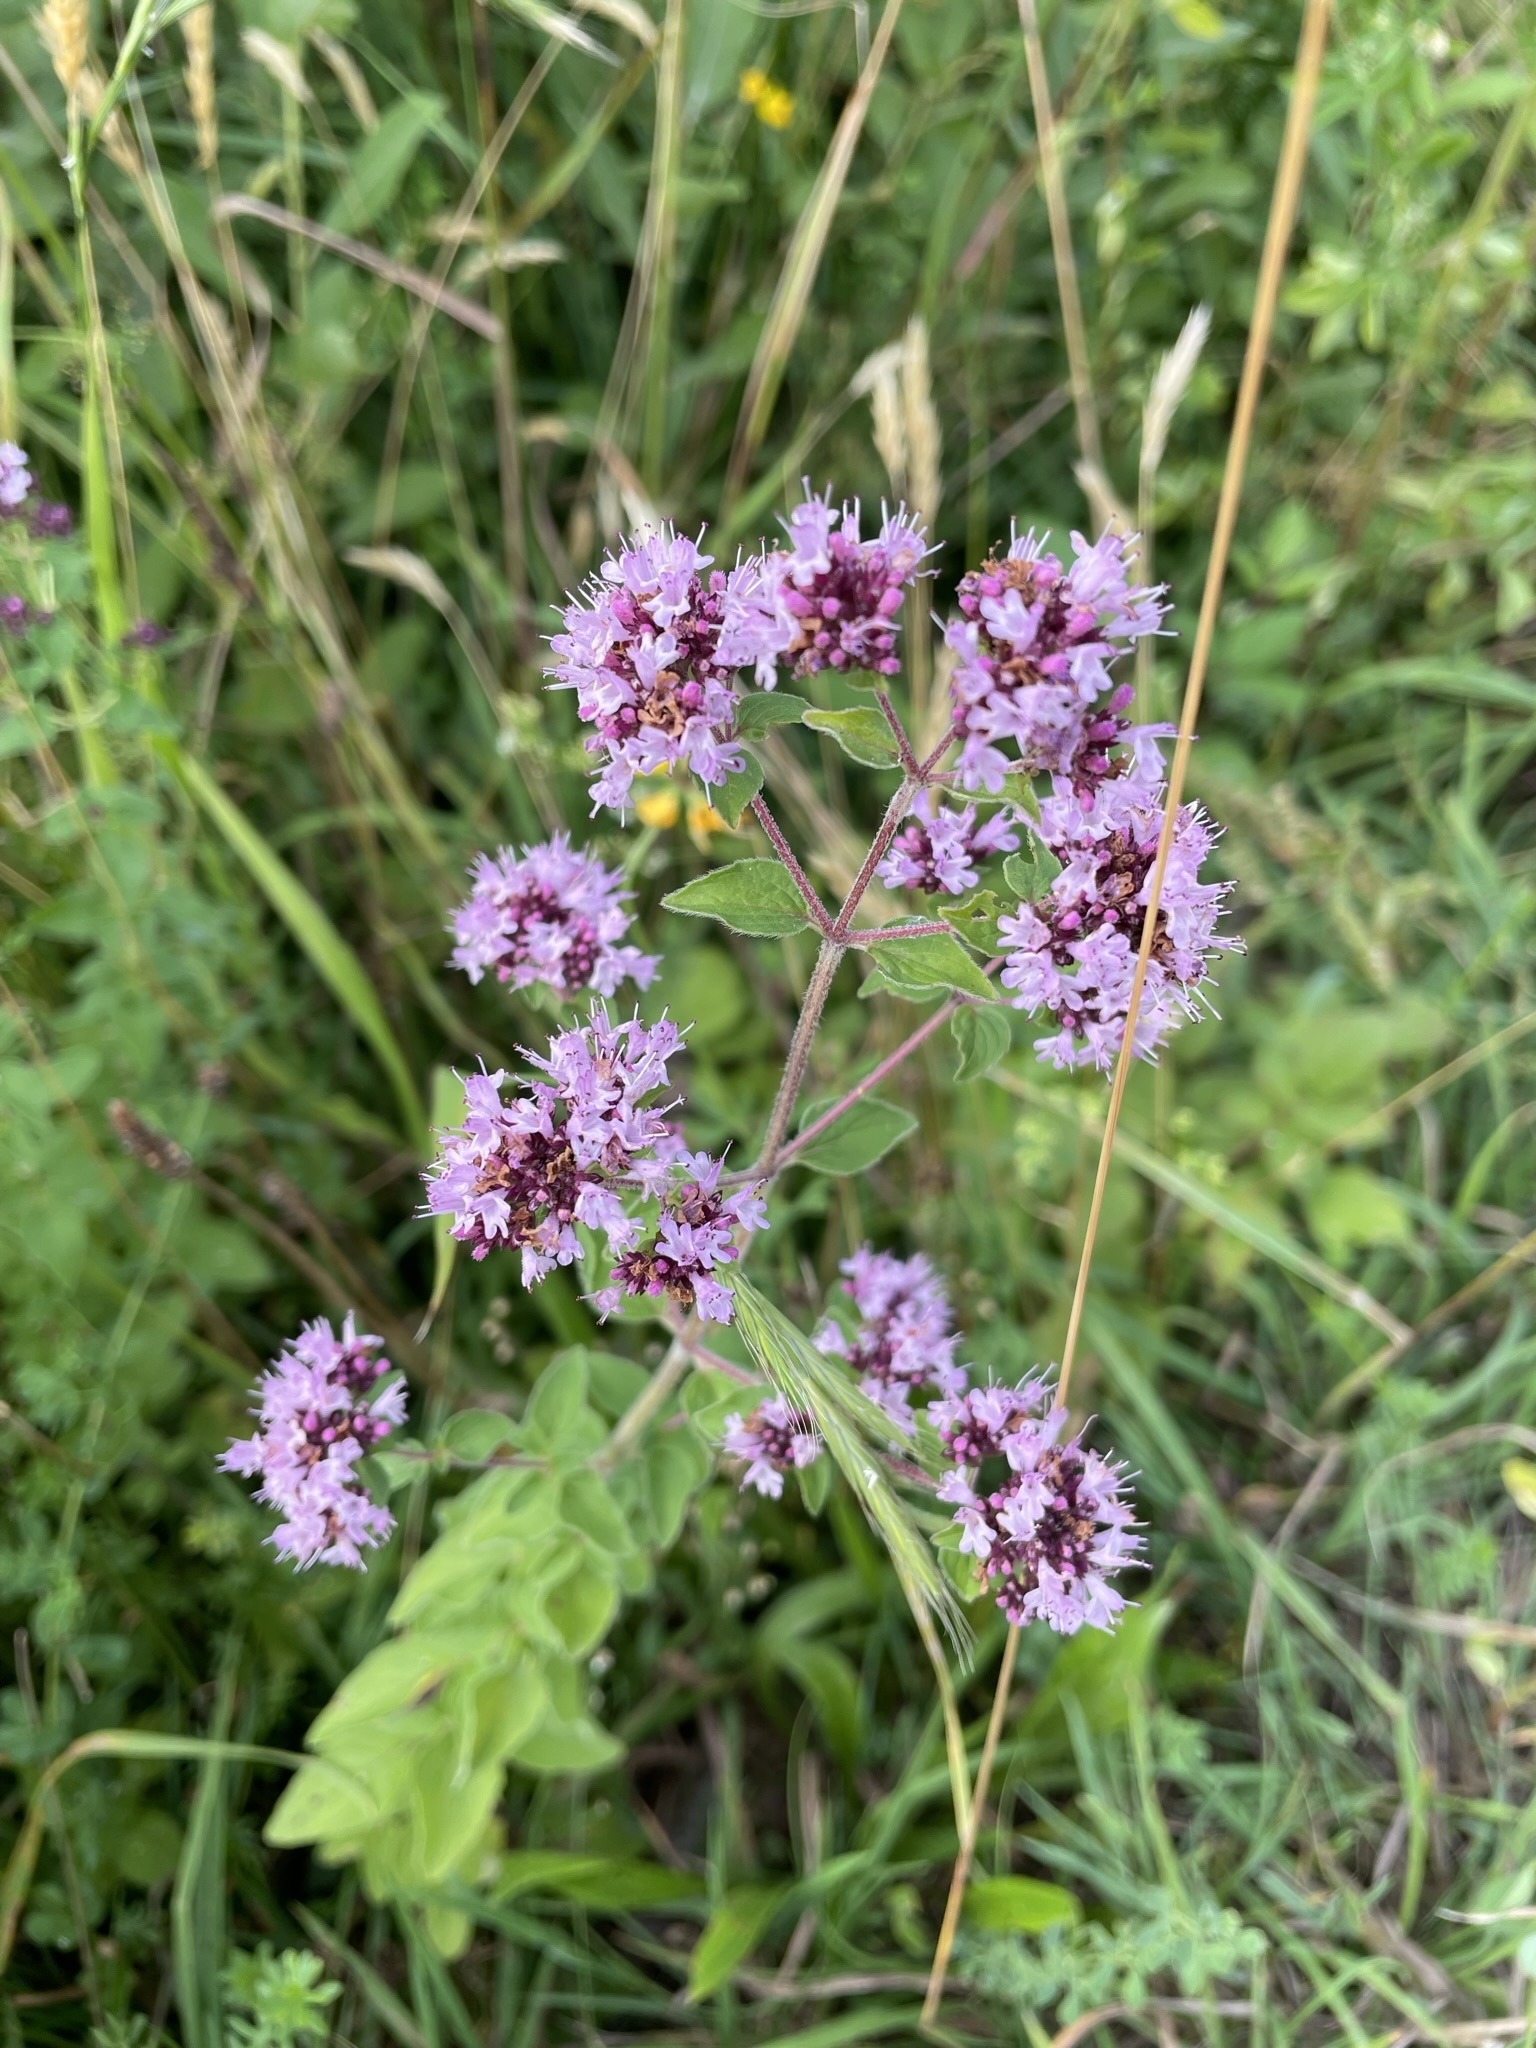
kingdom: Plantae
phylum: Tracheophyta
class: Magnoliopsida
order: Lamiales
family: Lamiaceae
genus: Origanum
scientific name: Origanum vulgare
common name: Wild marjoram
